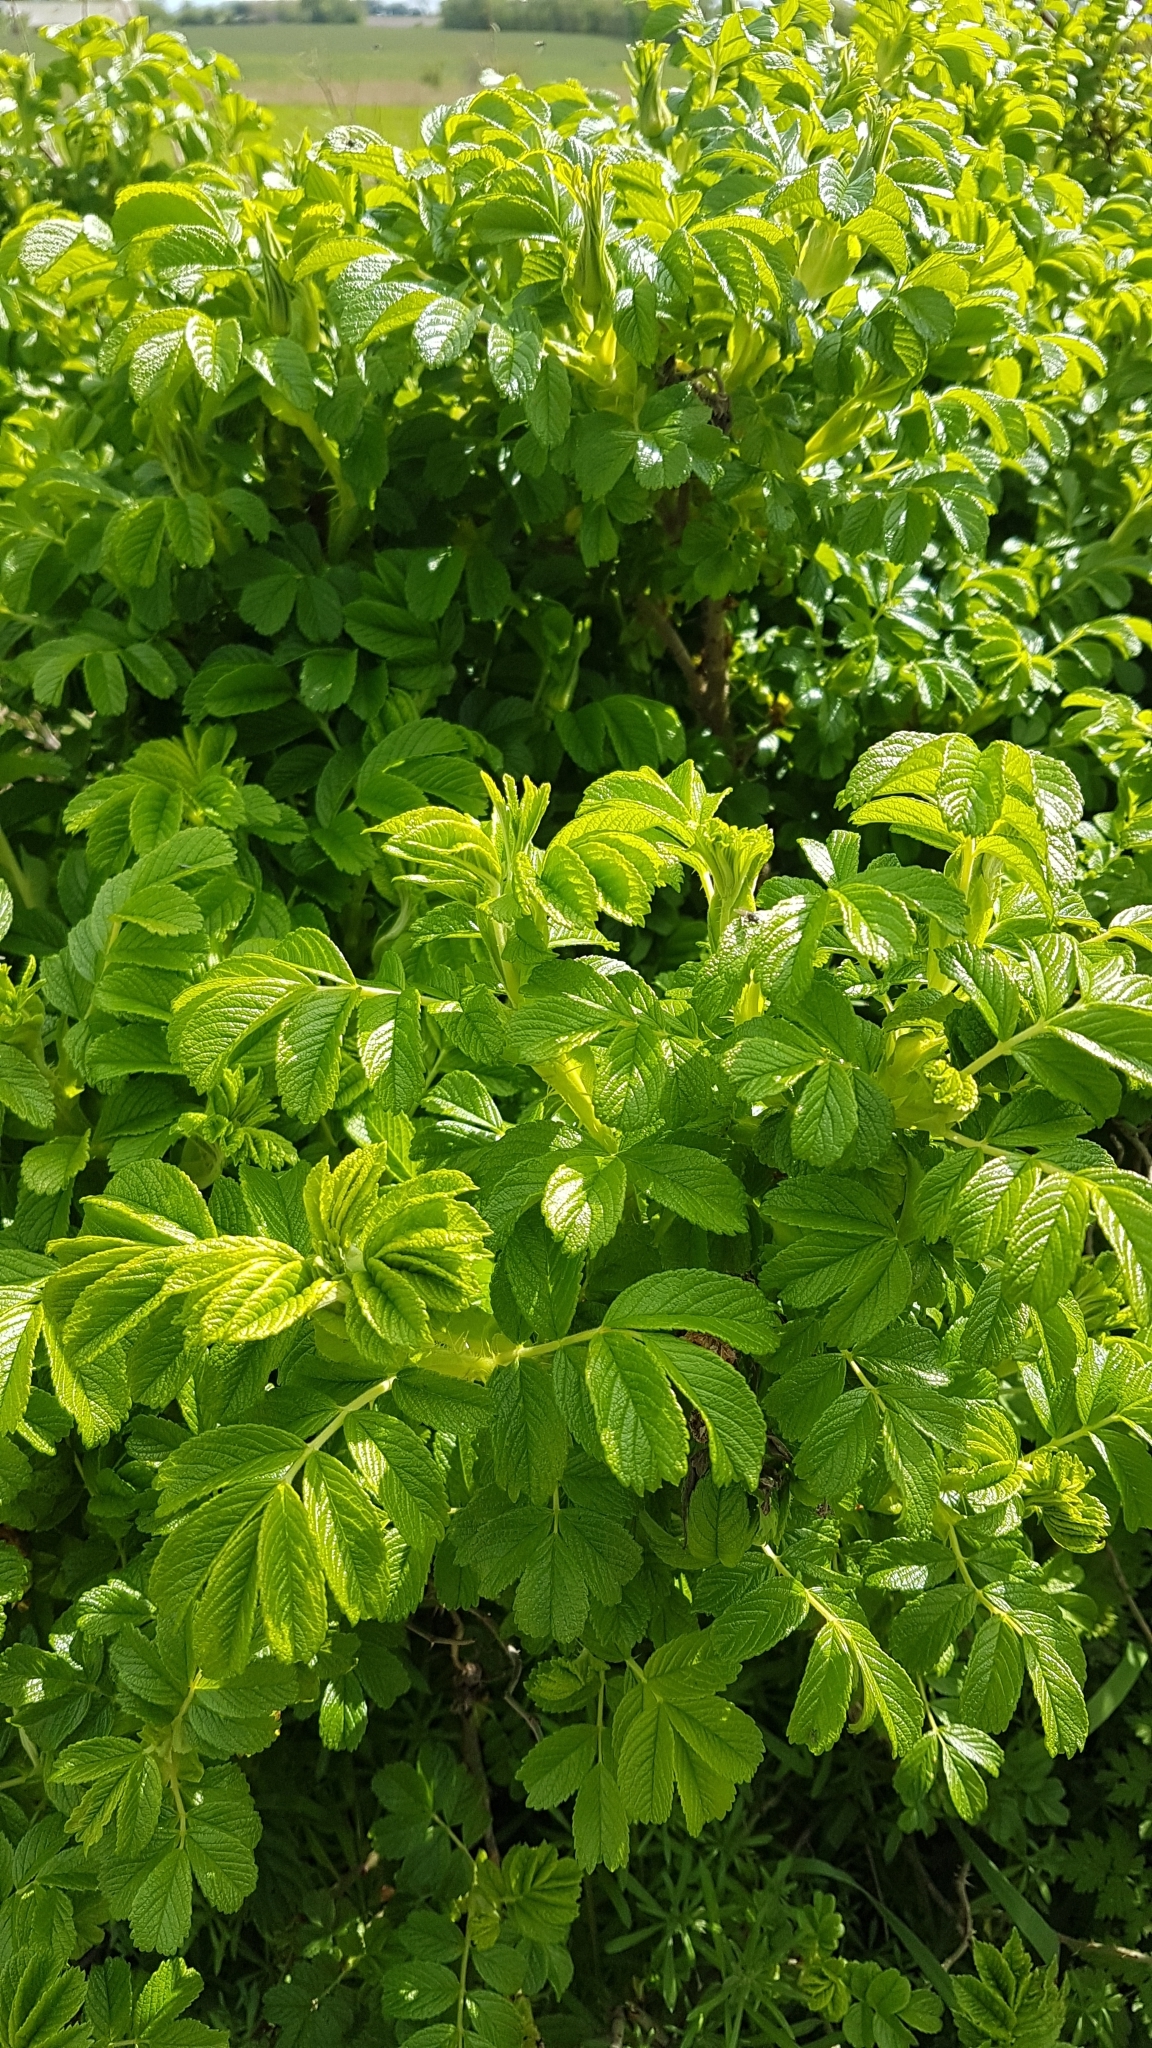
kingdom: Plantae
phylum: Tracheophyta
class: Magnoliopsida
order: Rosales
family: Rosaceae
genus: Rosa
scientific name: Rosa rugosa
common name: Japanese rose
